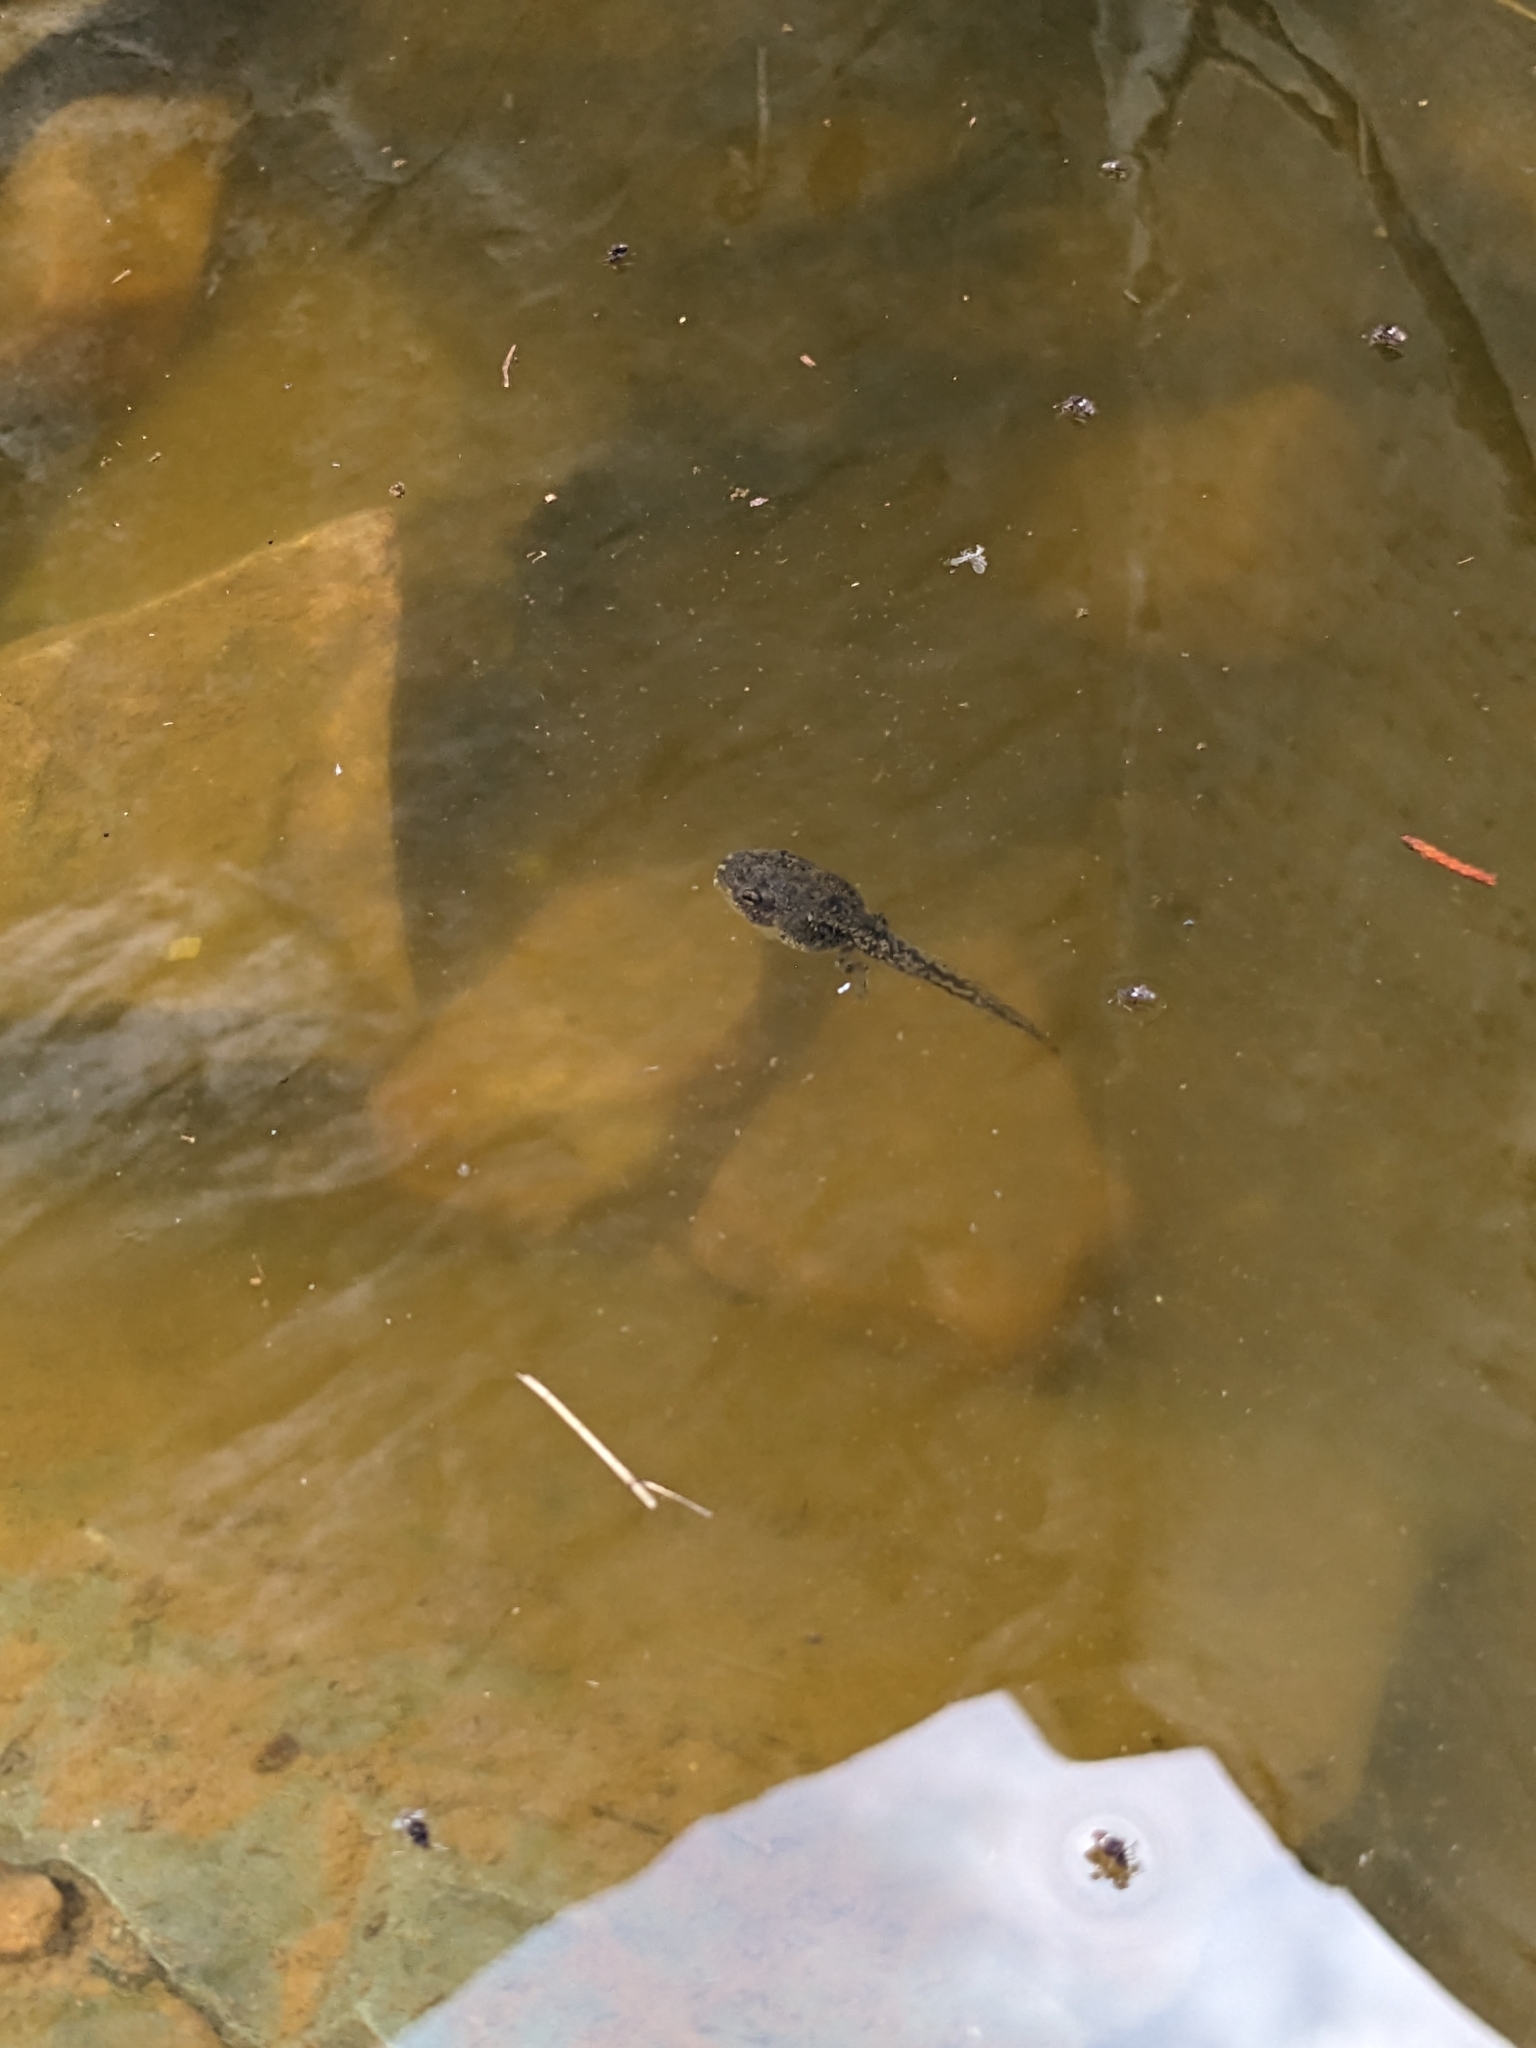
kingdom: Animalia
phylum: Chordata
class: Amphibia
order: Anura
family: Hylidae
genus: Dryophytes
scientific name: Dryophytes arenicolor
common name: Canyon treefrog
